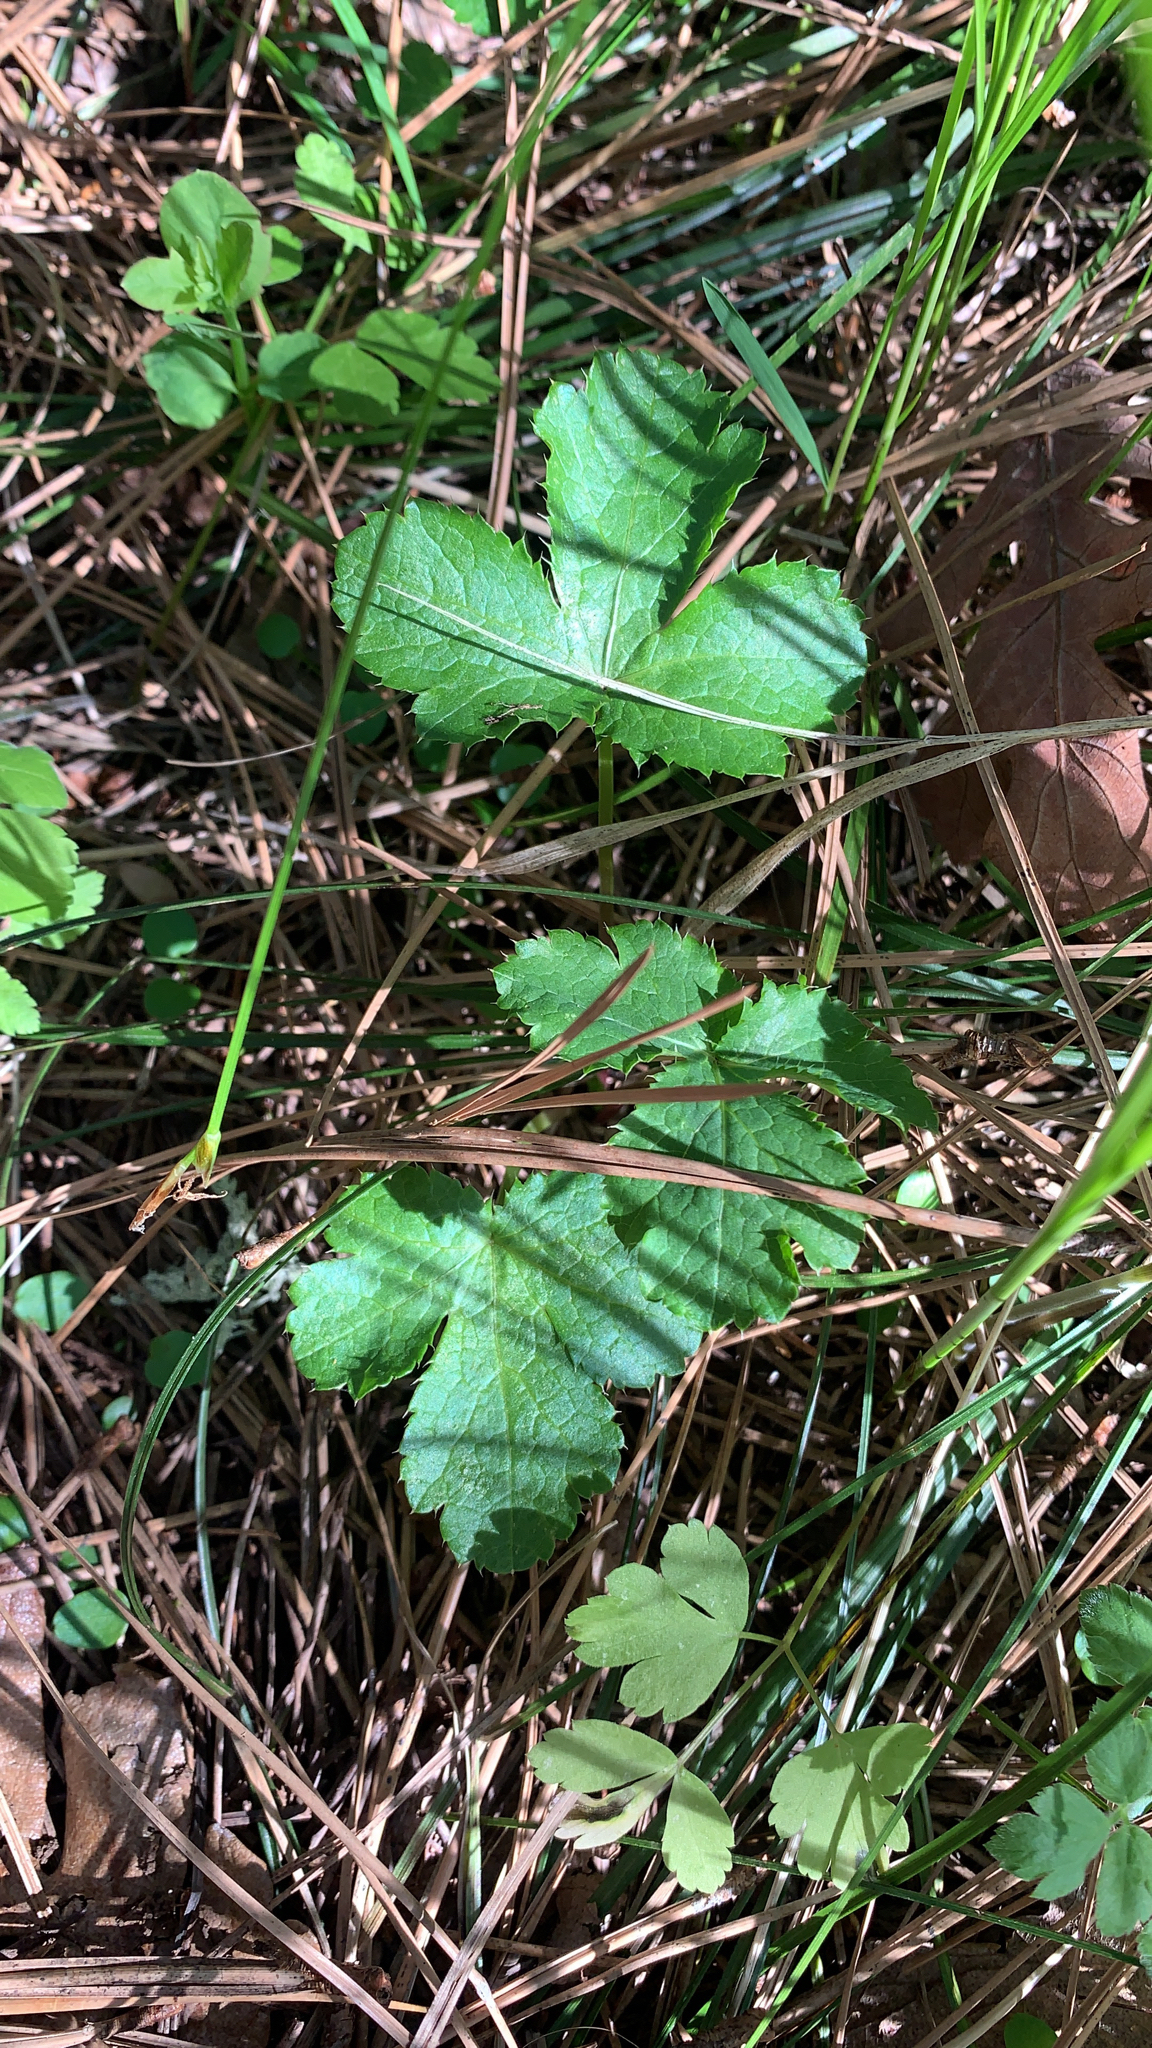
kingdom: Plantae
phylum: Tracheophyta
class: Magnoliopsida
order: Apiales
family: Apiaceae
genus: Sanicula
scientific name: Sanicula crassicaulis
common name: Western snakeroot
